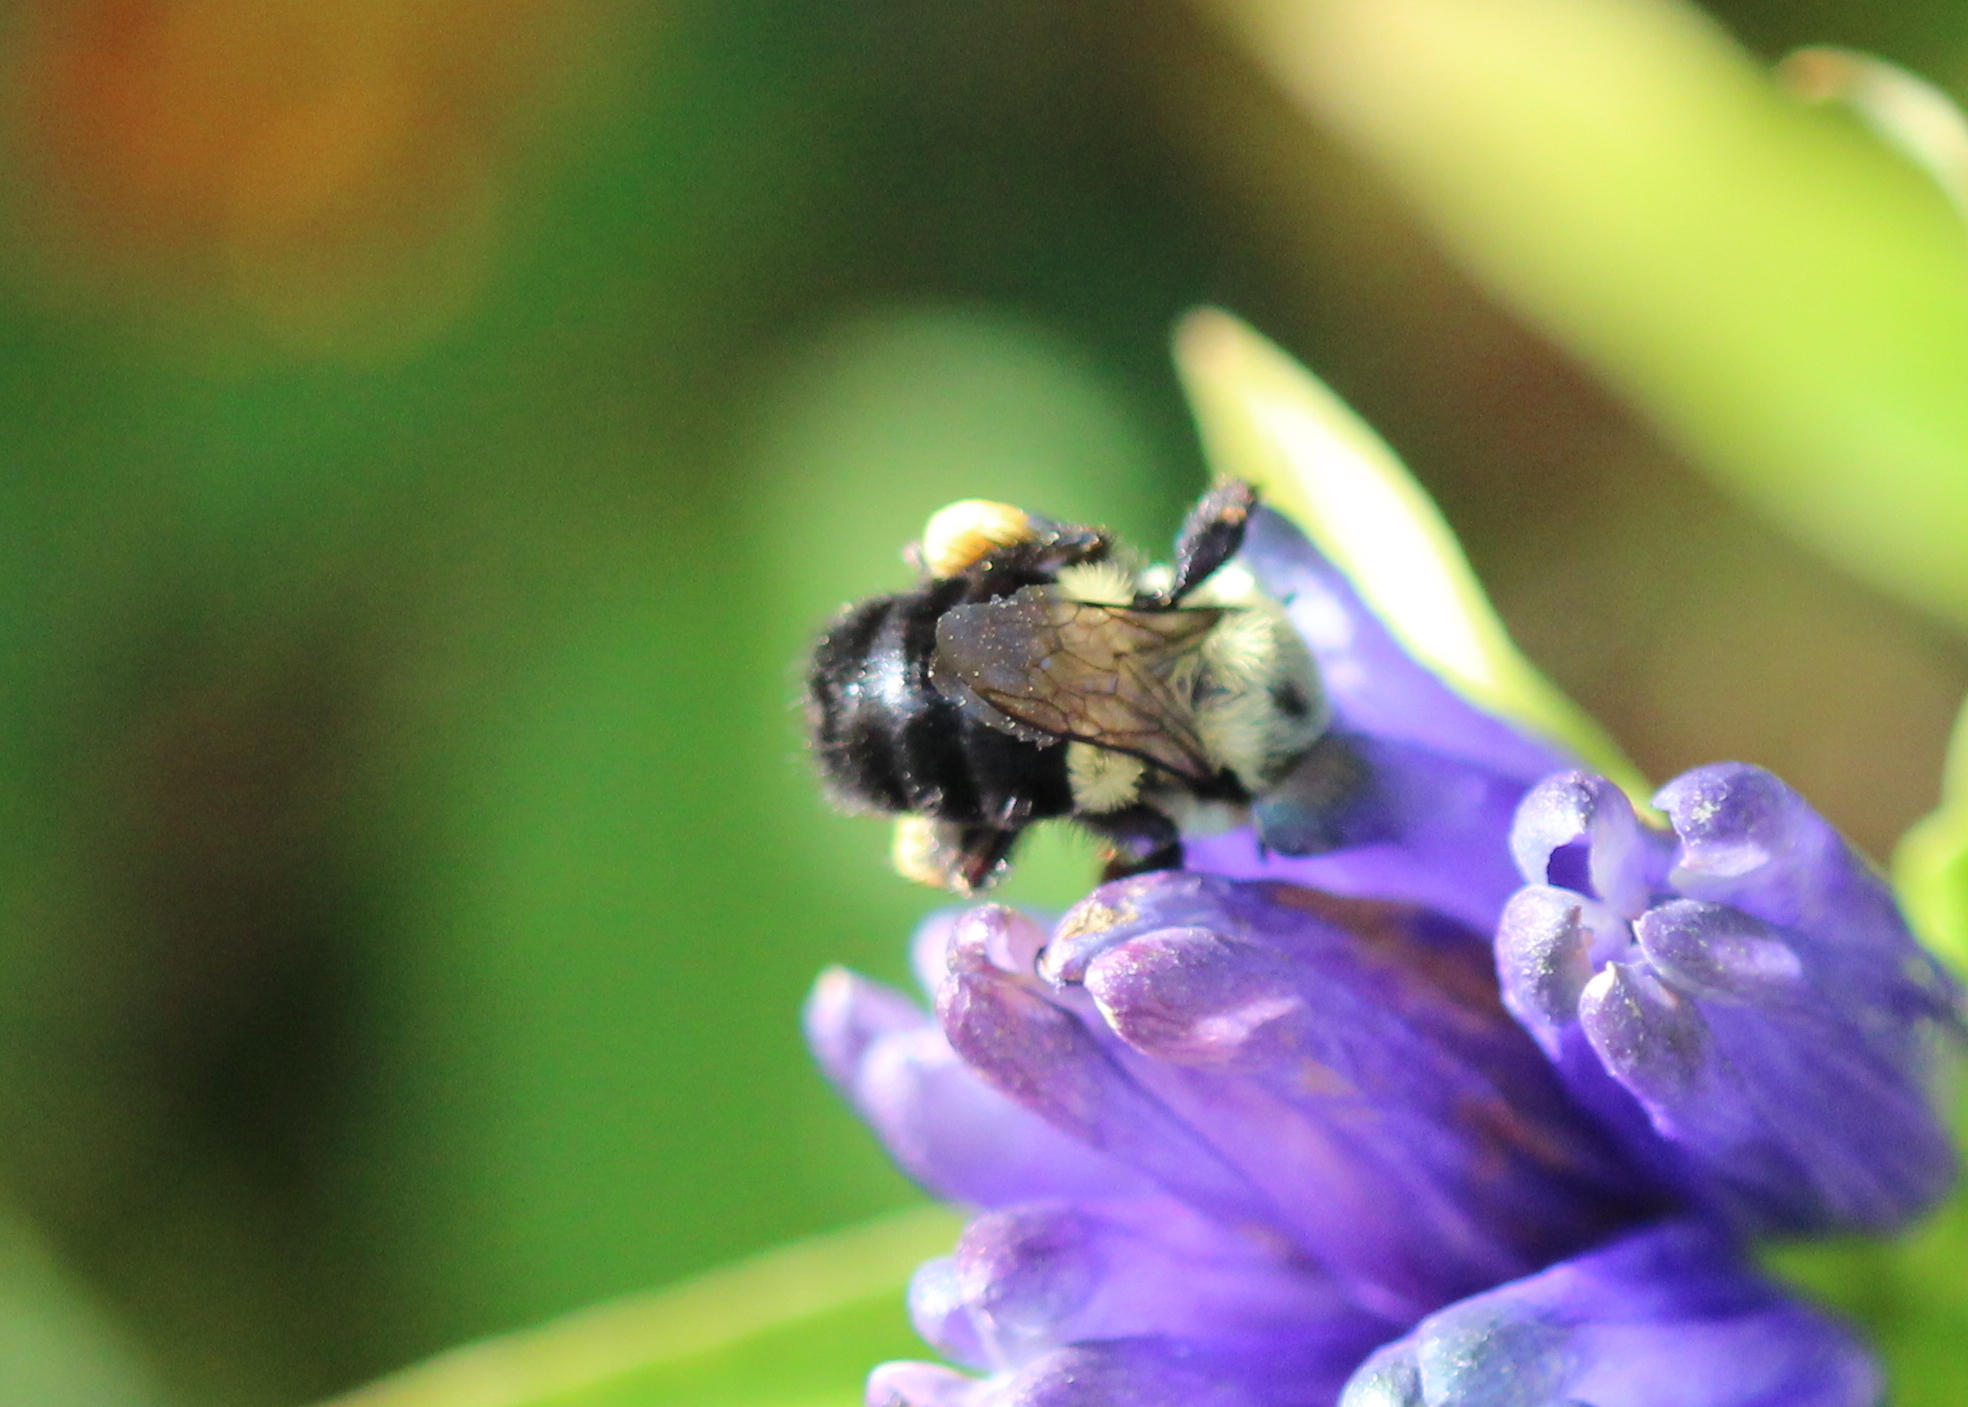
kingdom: Animalia
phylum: Arthropoda
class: Insecta
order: Hymenoptera
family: Apidae
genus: Bombus
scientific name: Bombus impatiens
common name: Common eastern bumble bee
